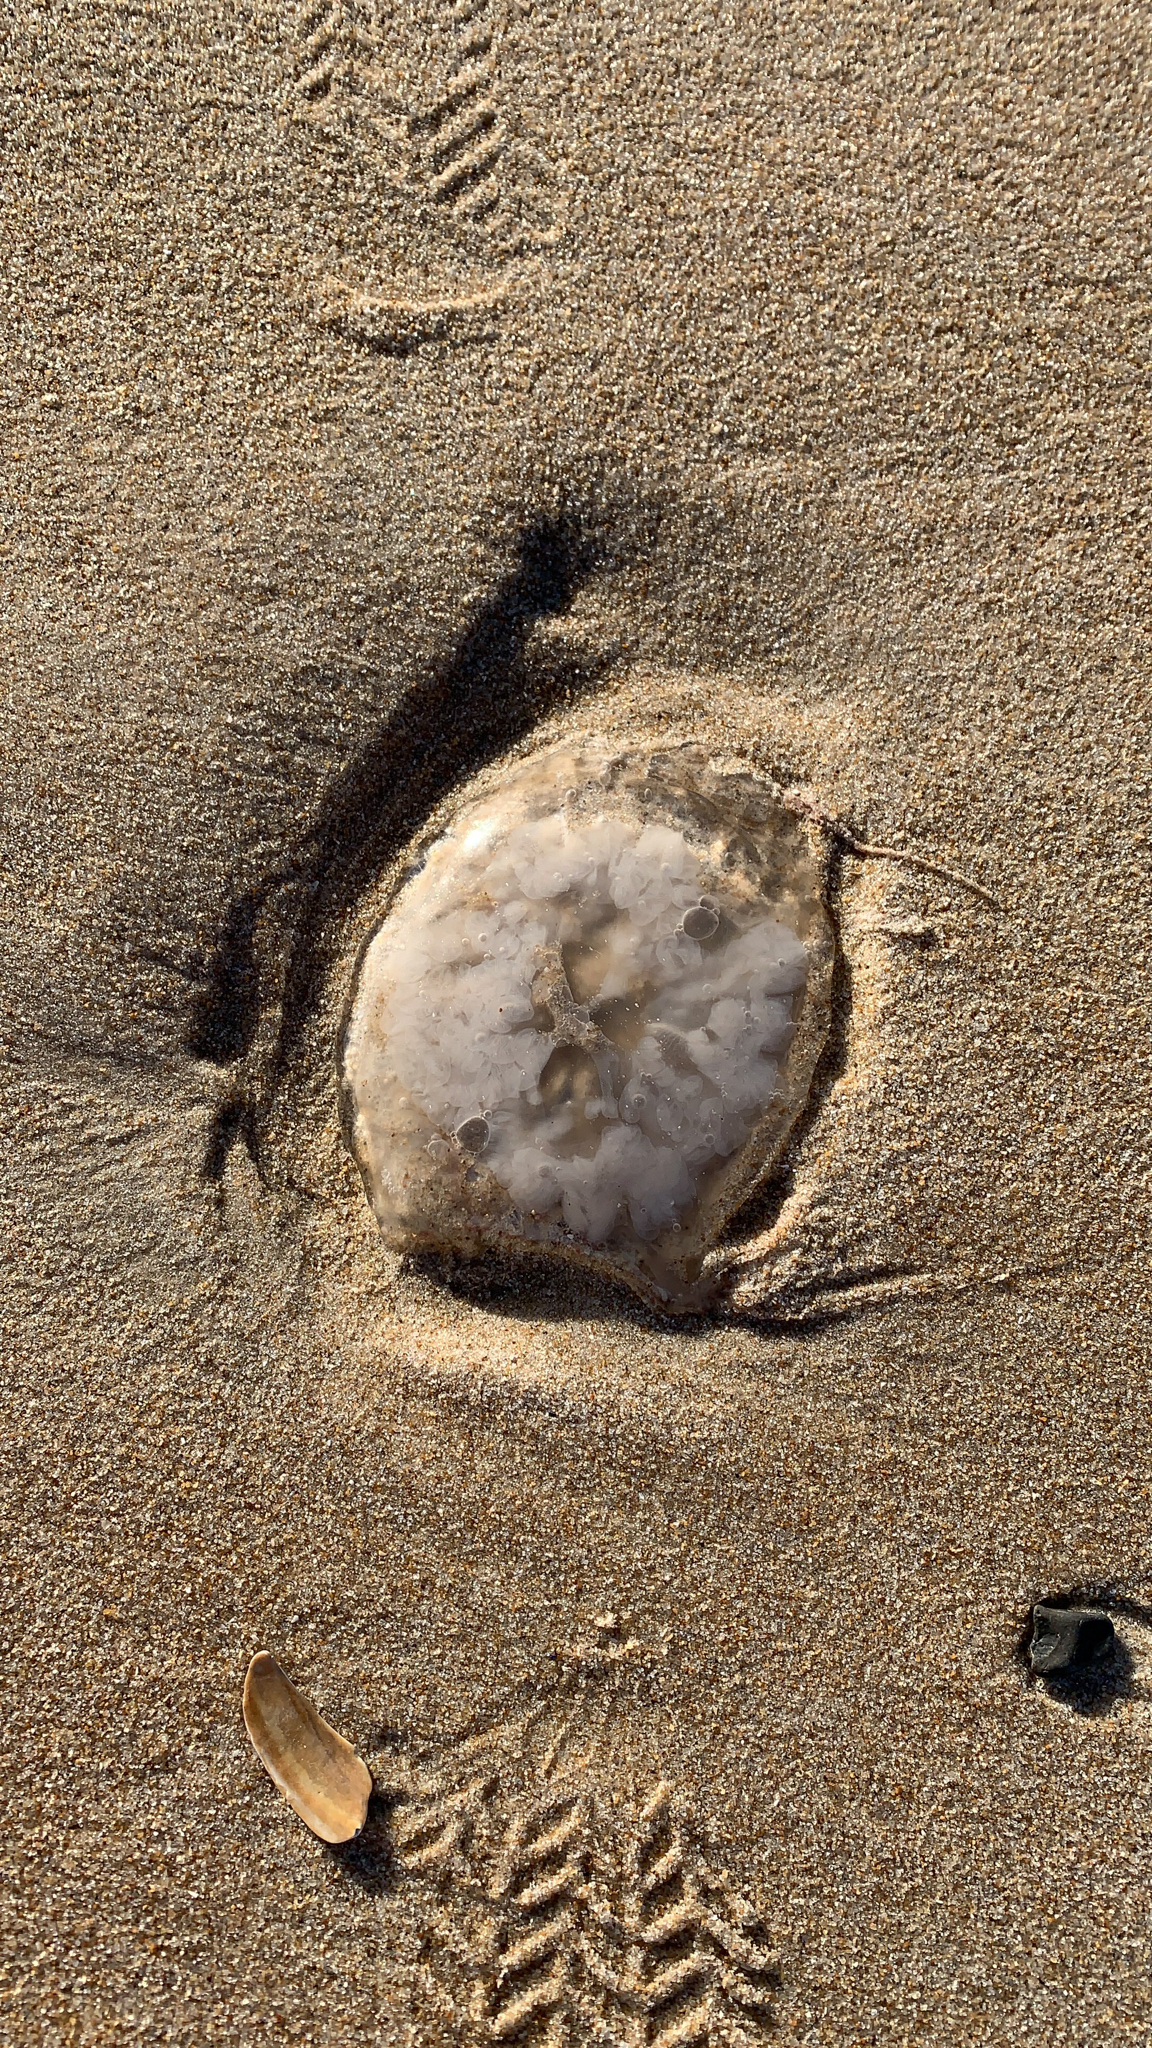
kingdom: Animalia
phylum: Cnidaria
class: Scyphozoa
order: Semaeostomeae
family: Pelagiidae
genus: Chrysaora
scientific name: Chrysaora chesapeakei
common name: Bay nettle
